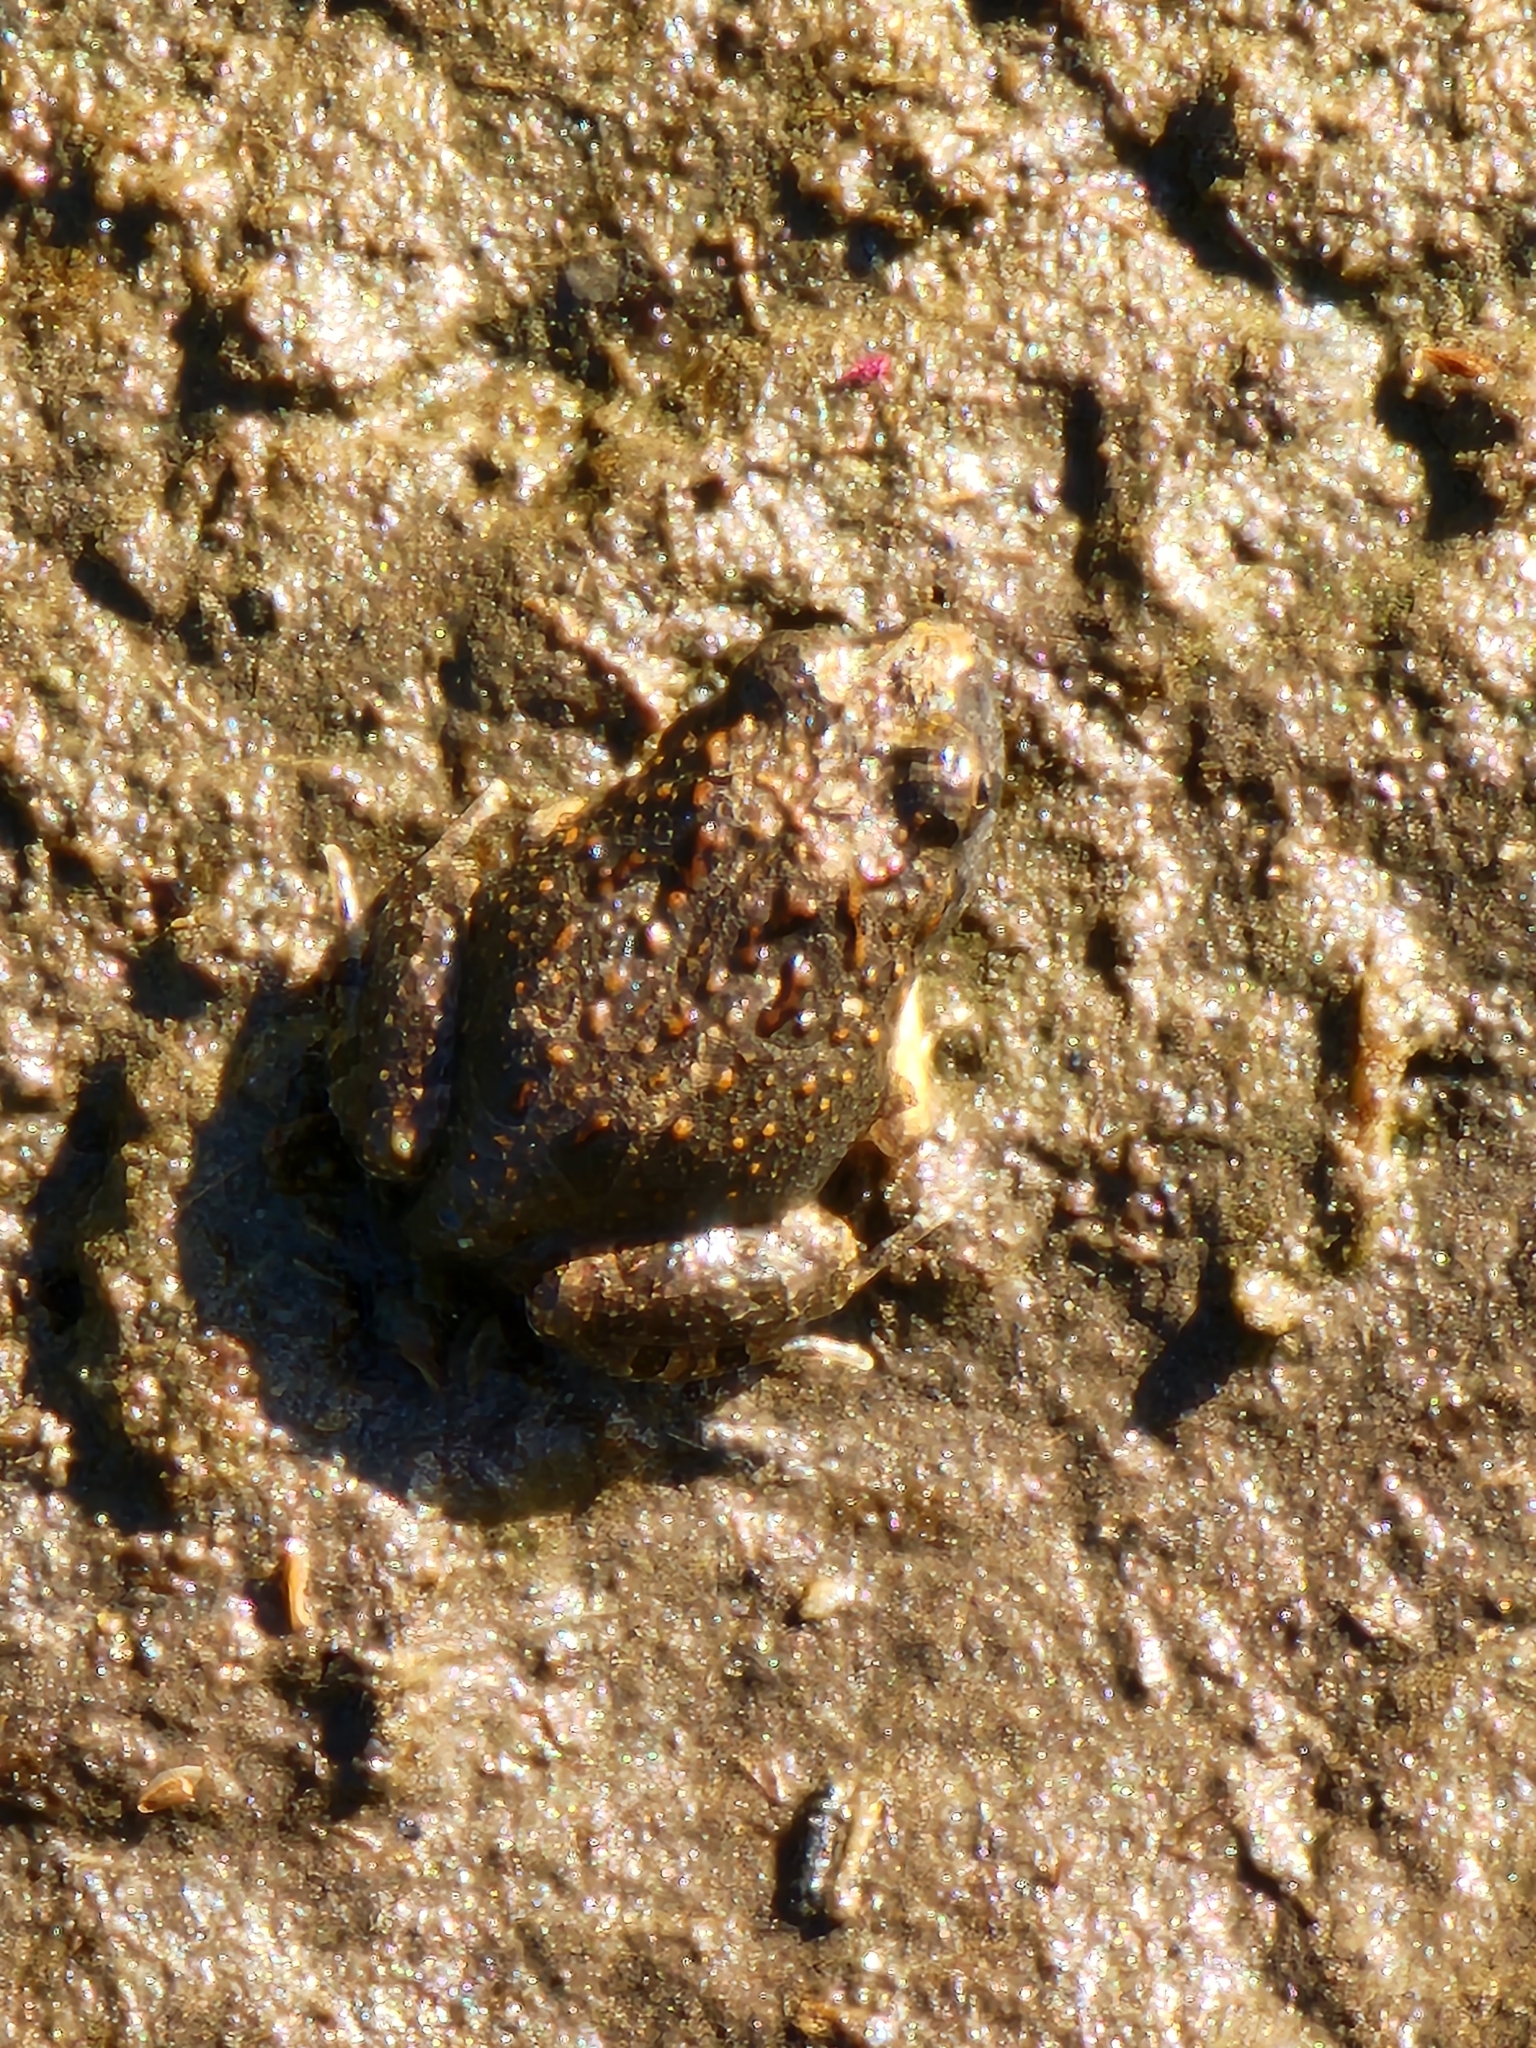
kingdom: Animalia
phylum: Chordata
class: Amphibia
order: Anura
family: Limnodynastidae
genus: Platyplectrum
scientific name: Platyplectrum ornatum
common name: Ornate burrowing frog
